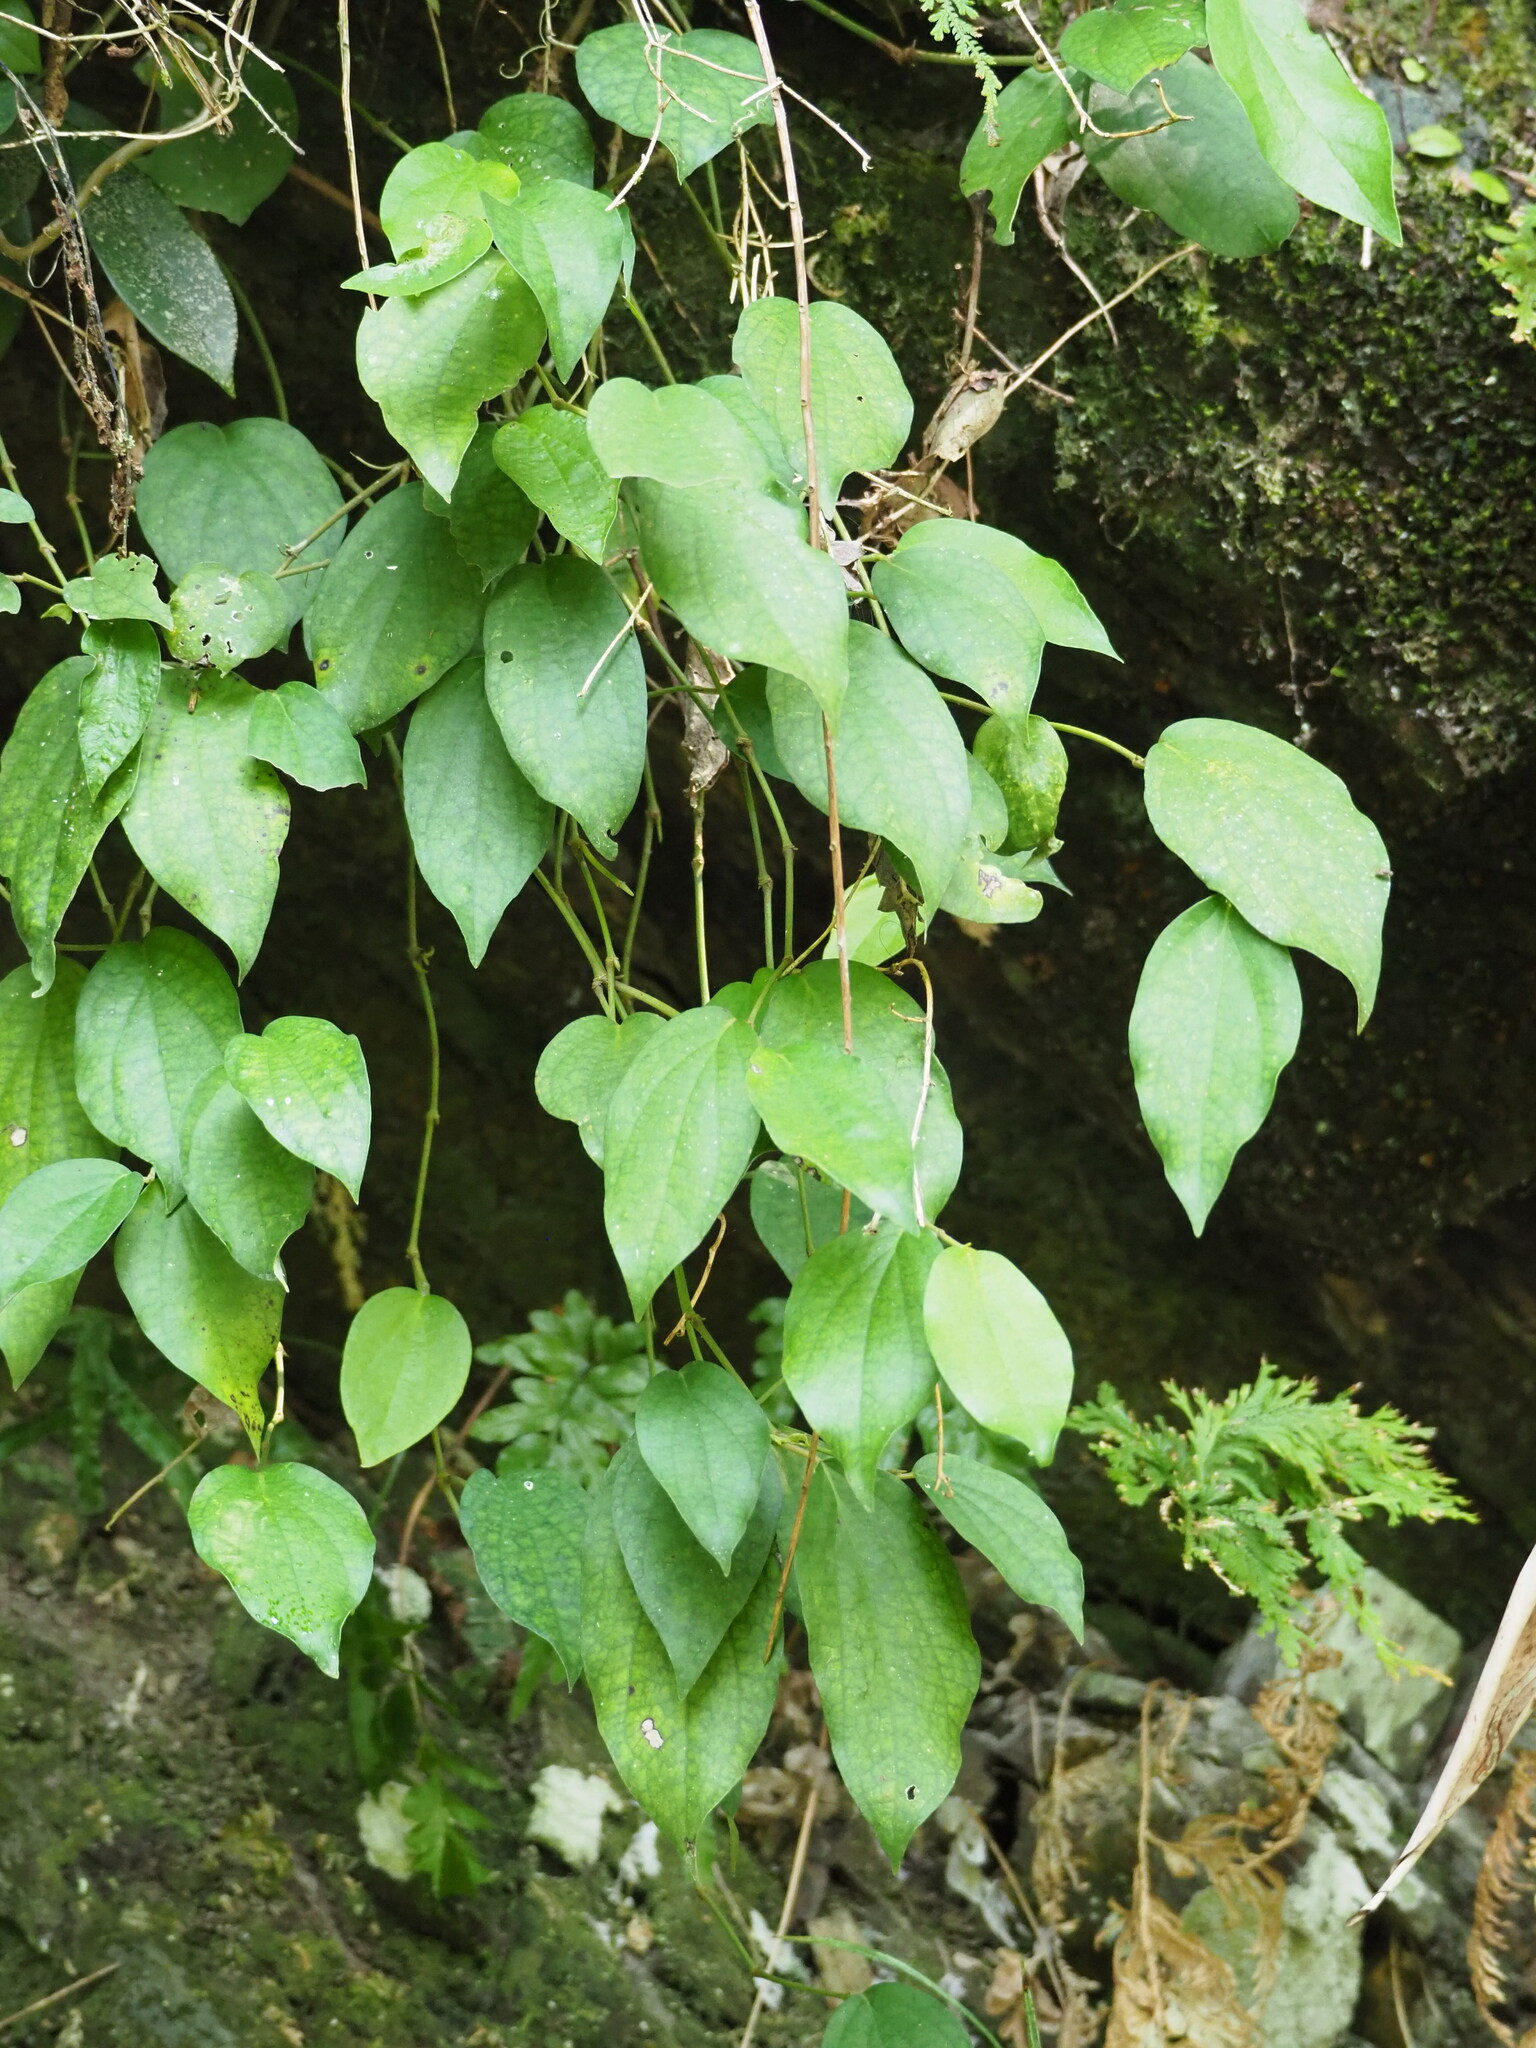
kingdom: Plantae
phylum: Tracheophyta
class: Magnoliopsida
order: Piperales
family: Piperaceae
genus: Piper
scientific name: Piper kadsura
